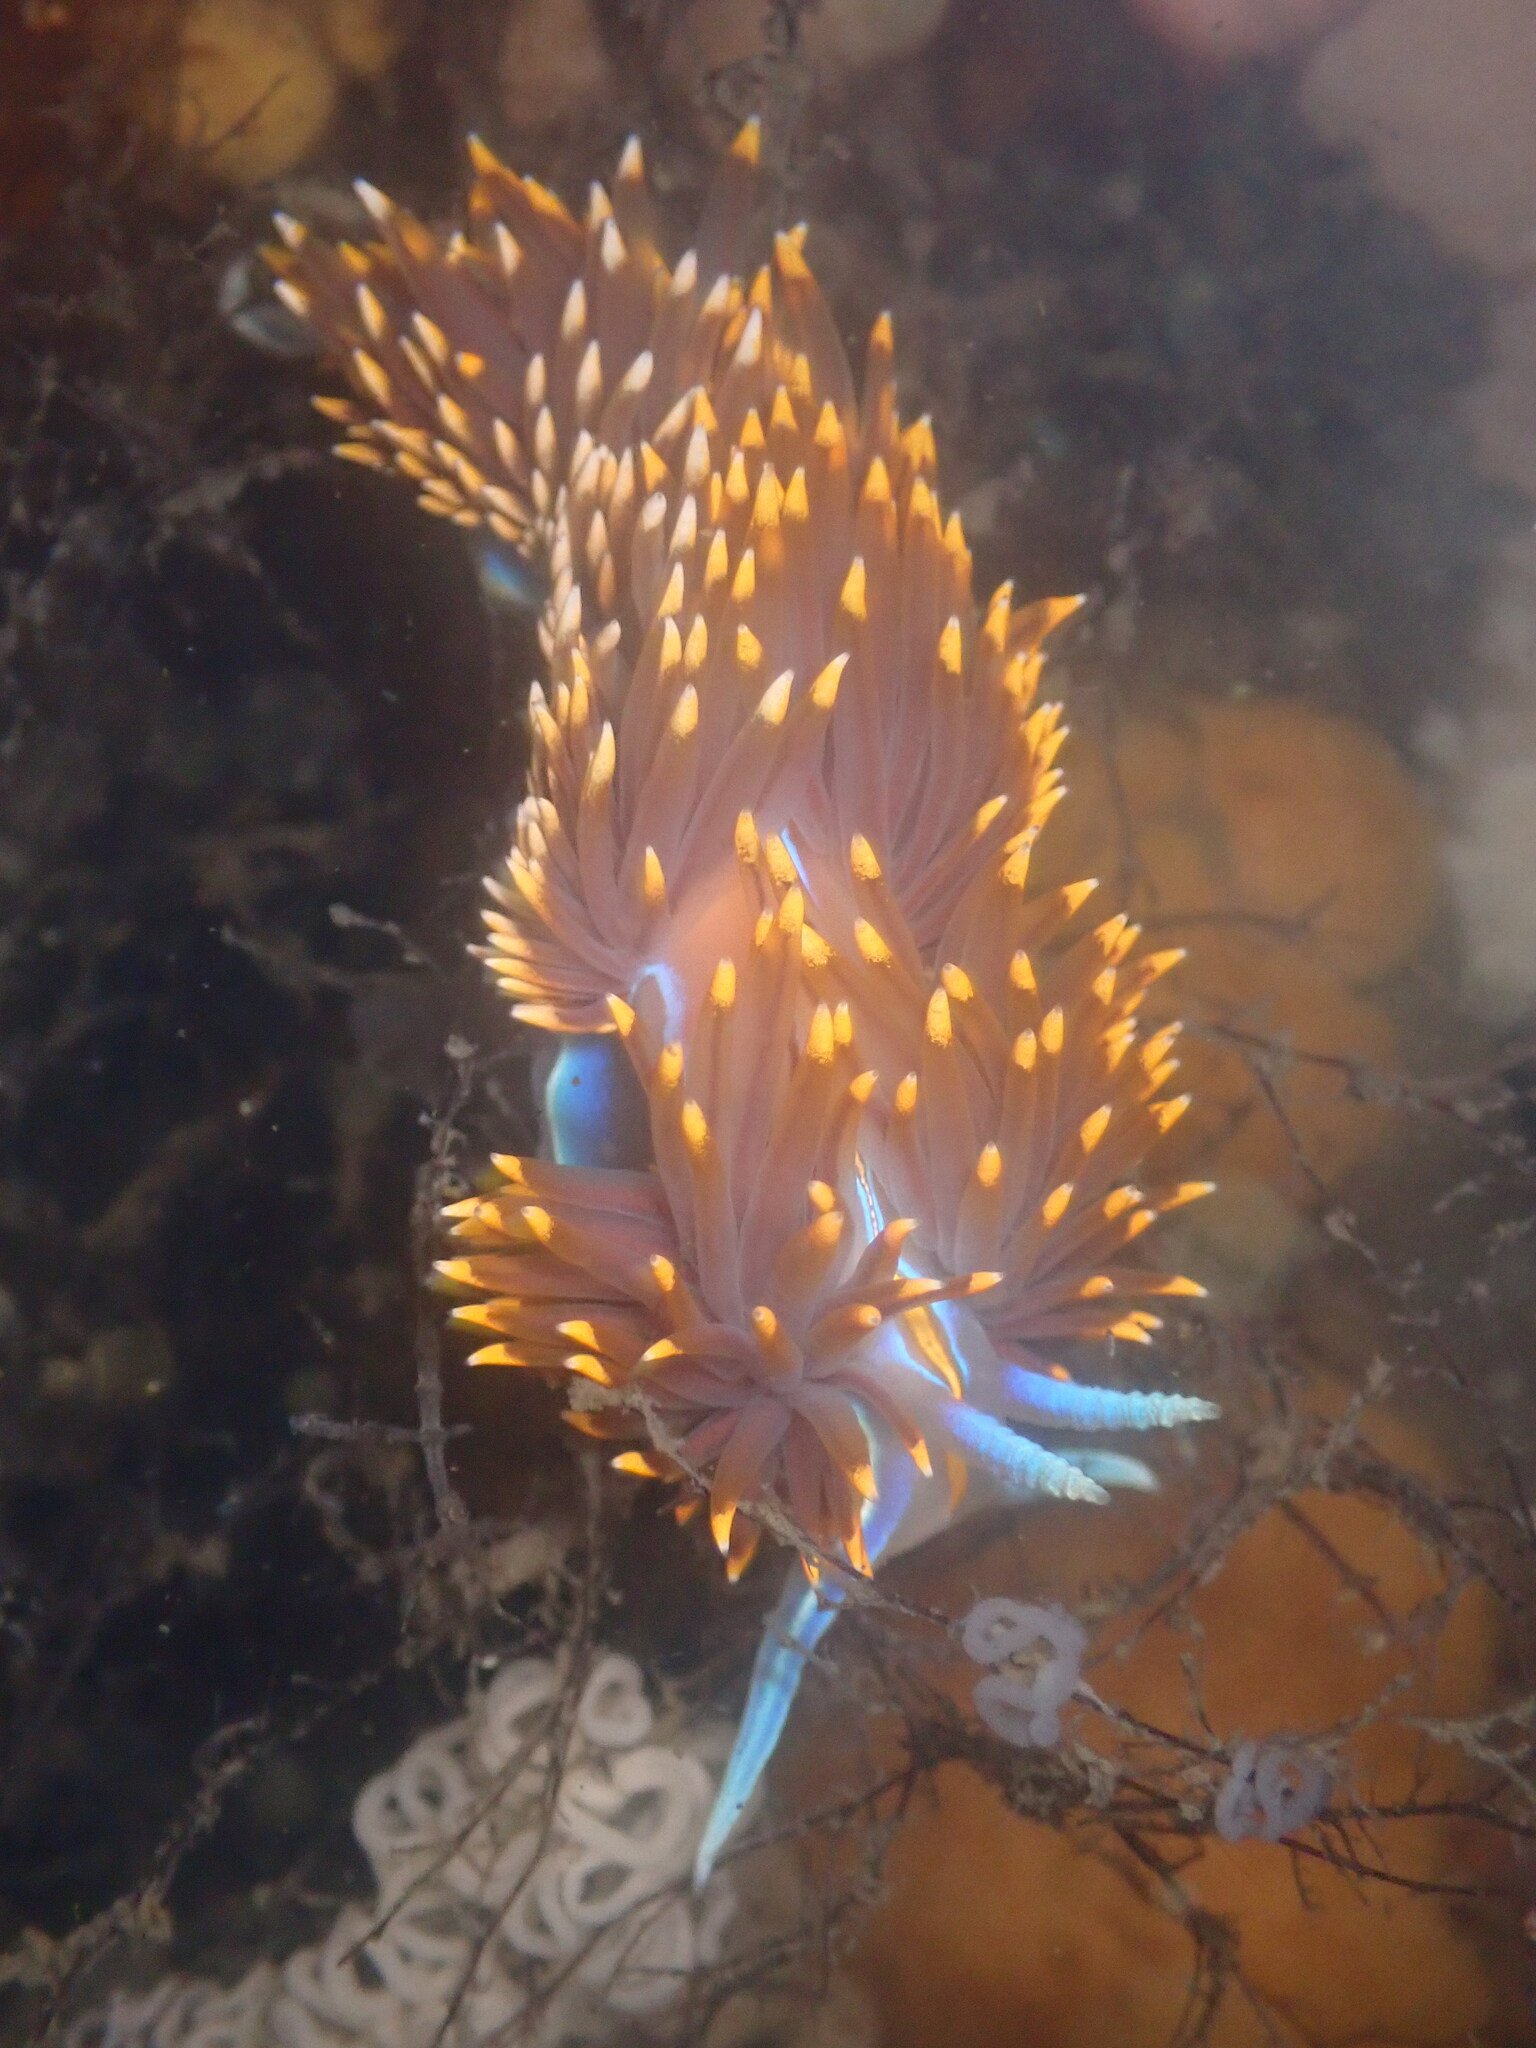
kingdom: Animalia
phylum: Mollusca
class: Gastropoda
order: Nudibranchia
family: Myrrhinidae
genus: Hermissenda
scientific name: Hermissenda opalescens
